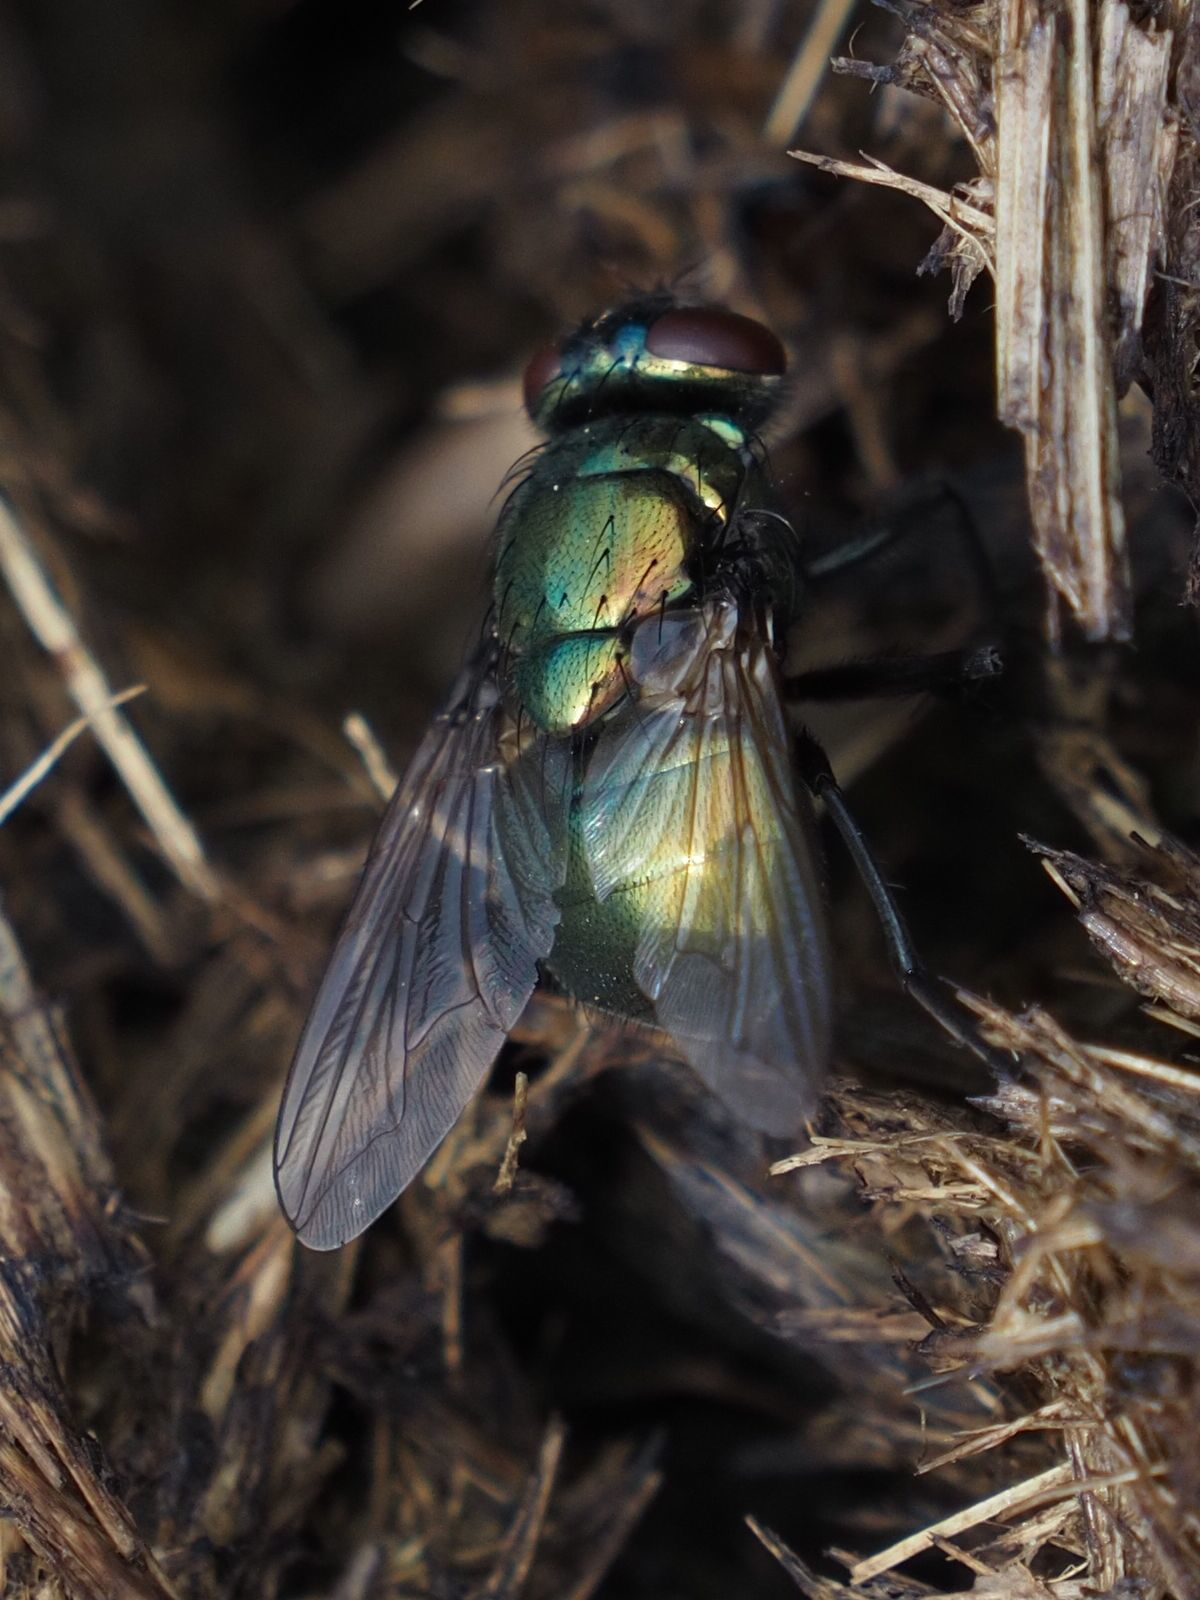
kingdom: Animalia
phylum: Arthropoda
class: Insecta
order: Diptera
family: Muscidae
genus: Neomyia
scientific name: Neomyia cornicina
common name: House fly
